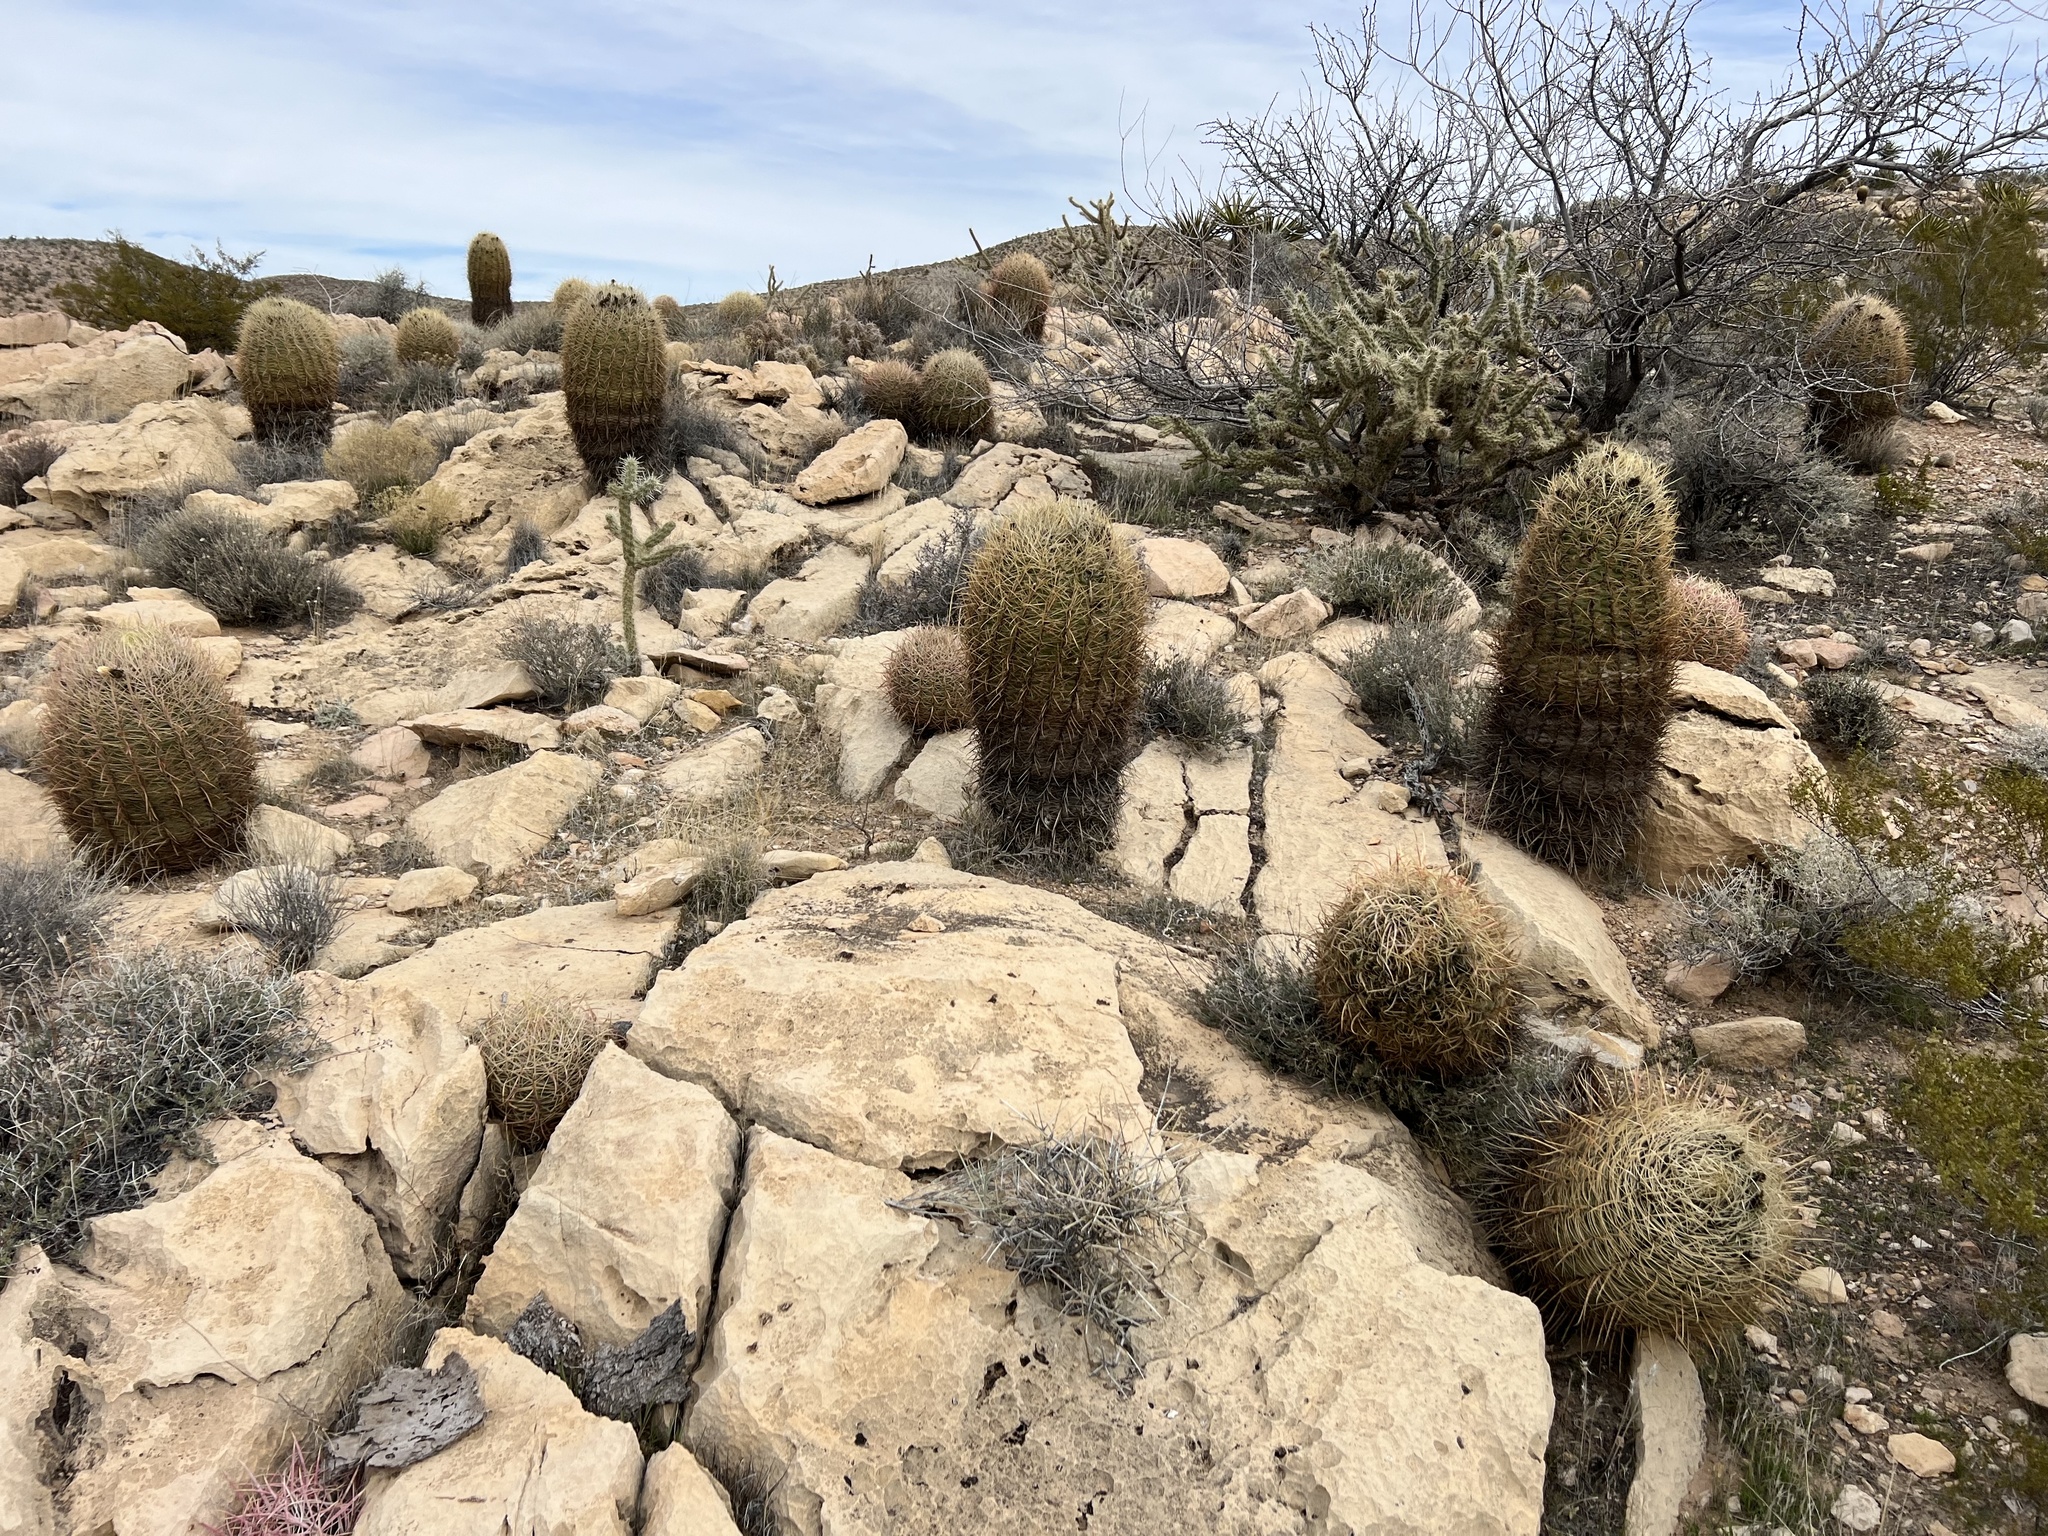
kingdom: Plantae
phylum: Tracheophyta
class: Magnoliopsida
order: Caryophyllales
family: Cactaceae
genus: Ferocactus
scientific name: Ferocactus cylindraceus
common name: California barrel cactus
